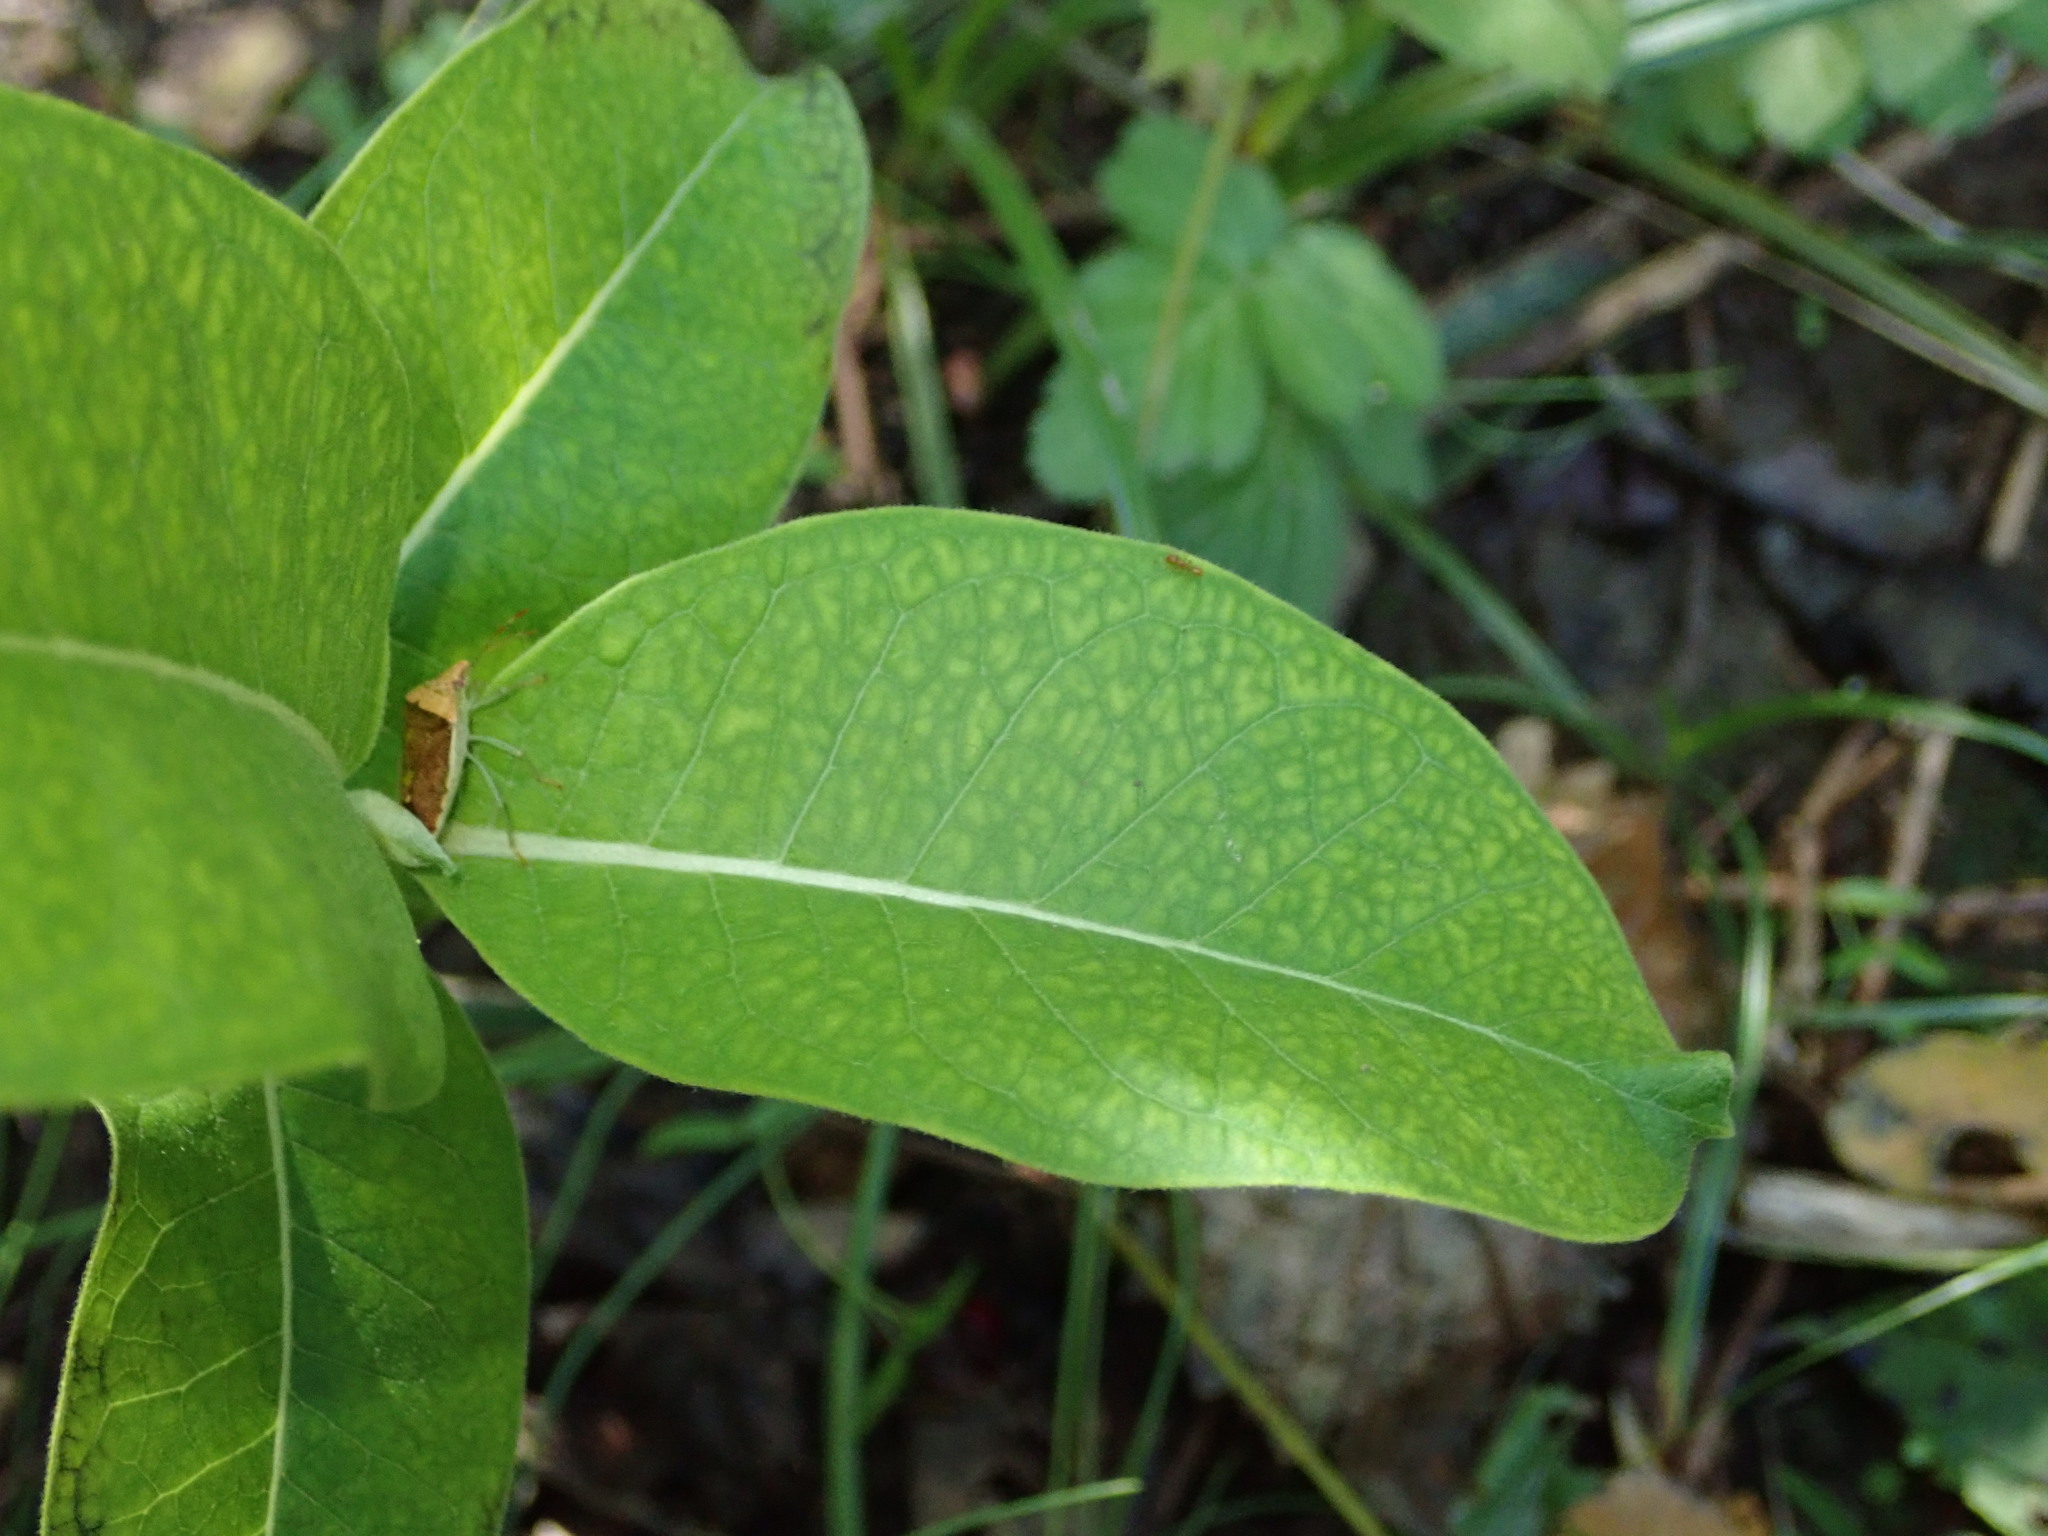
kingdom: Plantae
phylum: Tracheophyta
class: Magnoliopsida
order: Gentianales
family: Apocynaceae
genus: Asclepias
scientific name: Asclepias syriaca
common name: Common milkweed
